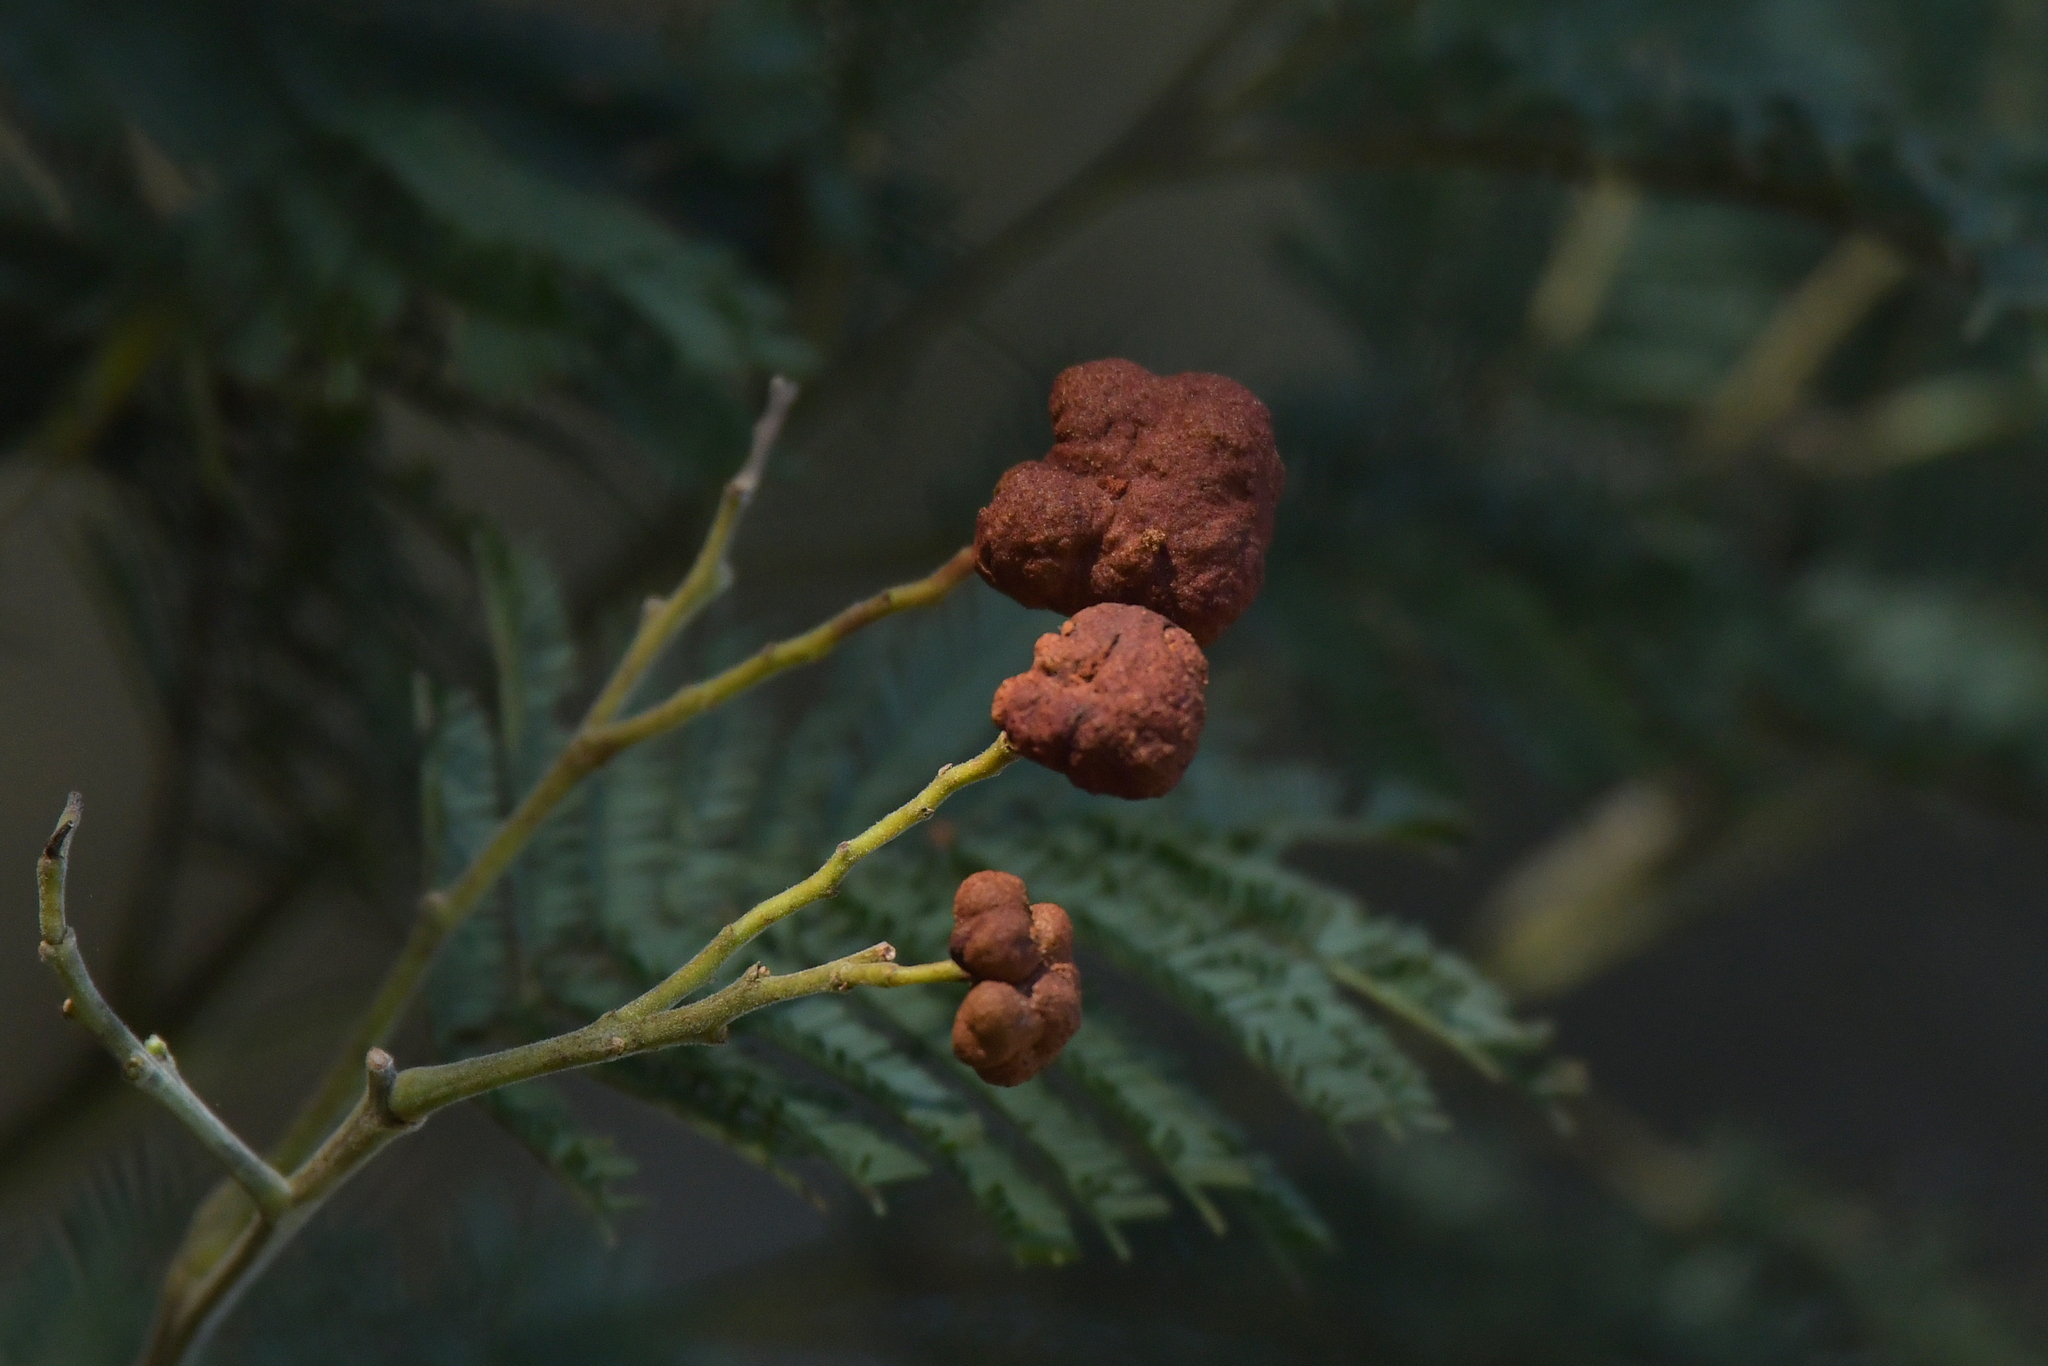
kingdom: Fungi
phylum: Basidiomycota
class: Pucciniomycetes
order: Pucciniales
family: Uromycladiaceae
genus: Uromycladium
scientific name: Uromycladium murphyi
